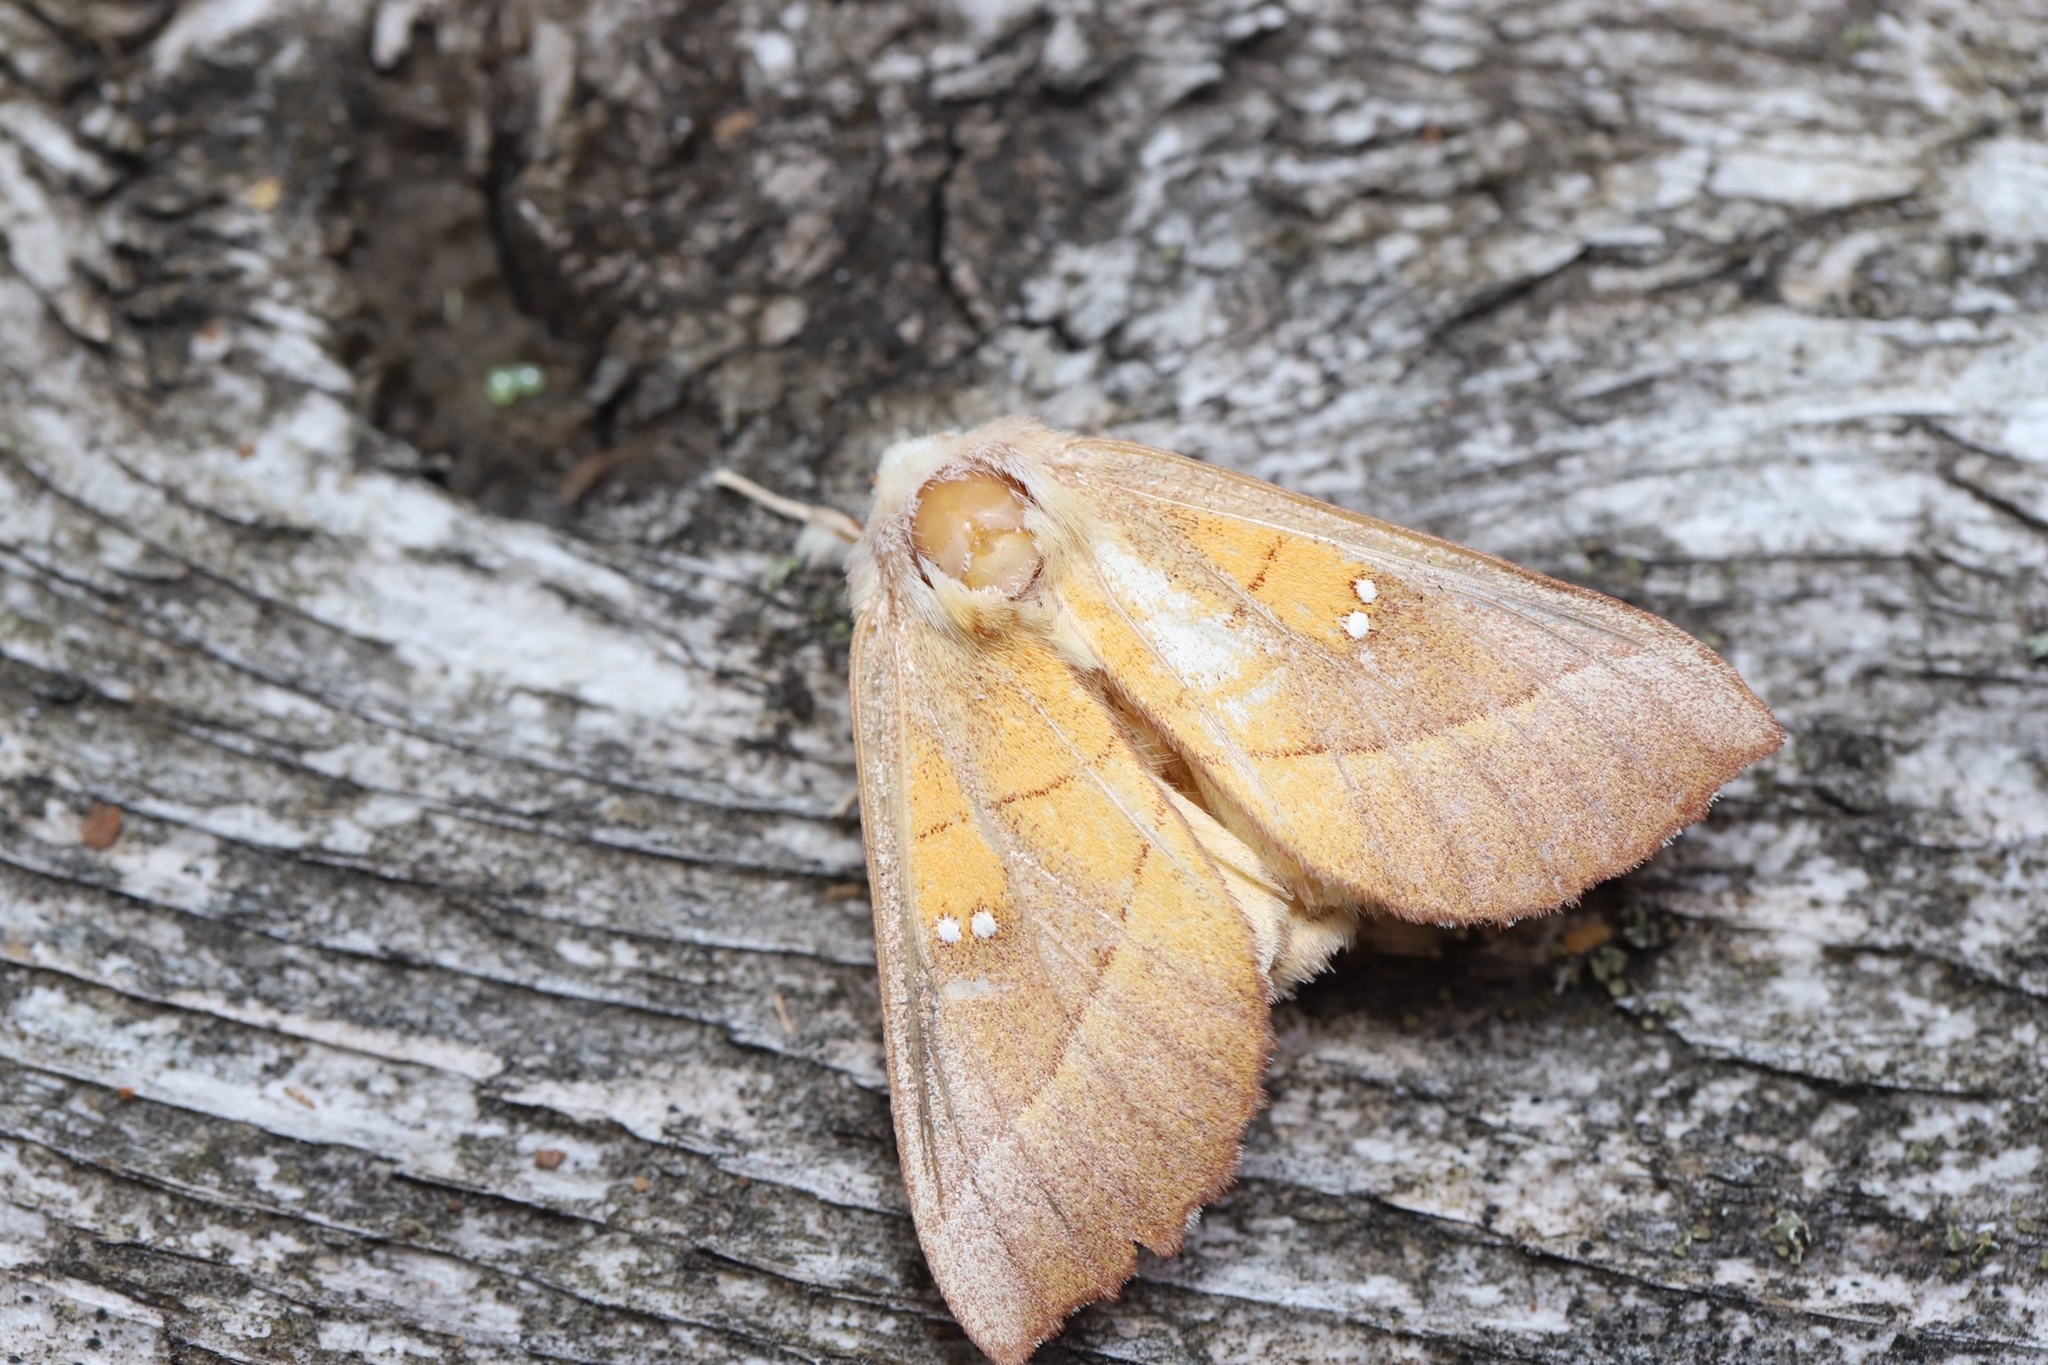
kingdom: Animalia
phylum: Arthropoda
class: Insecta
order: Lepidoptera
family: Notodontidae
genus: Nadata
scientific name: Nadata gibbosa
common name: White-dotted prominent
